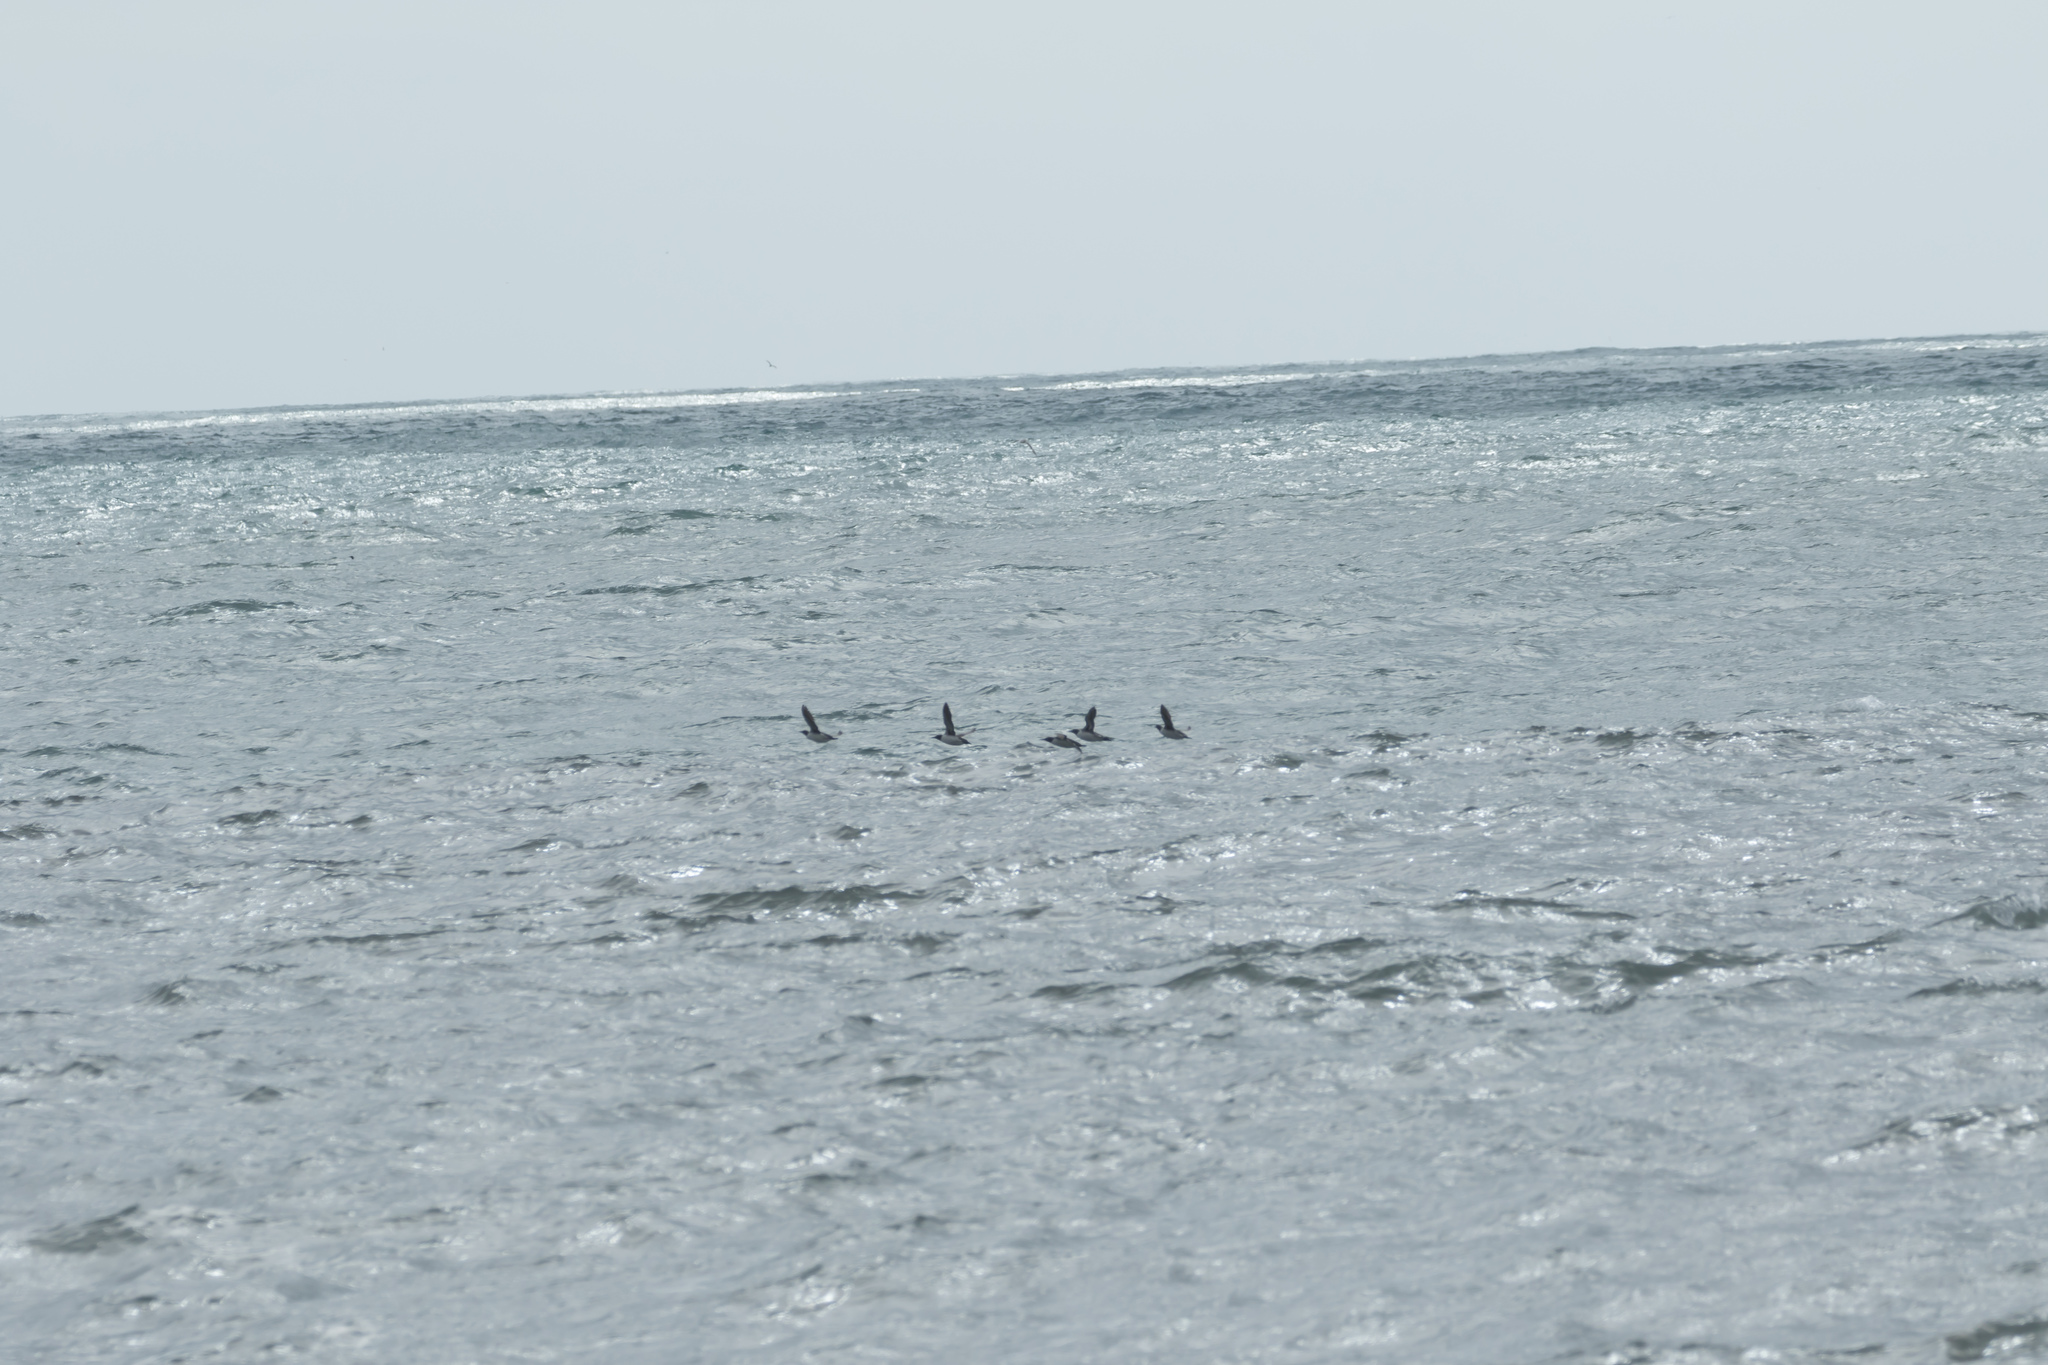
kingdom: Animalia
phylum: Chordata
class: Aves
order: Charadriiformes
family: Alcidae
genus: Uria
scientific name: Uria aalge
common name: Common murre
